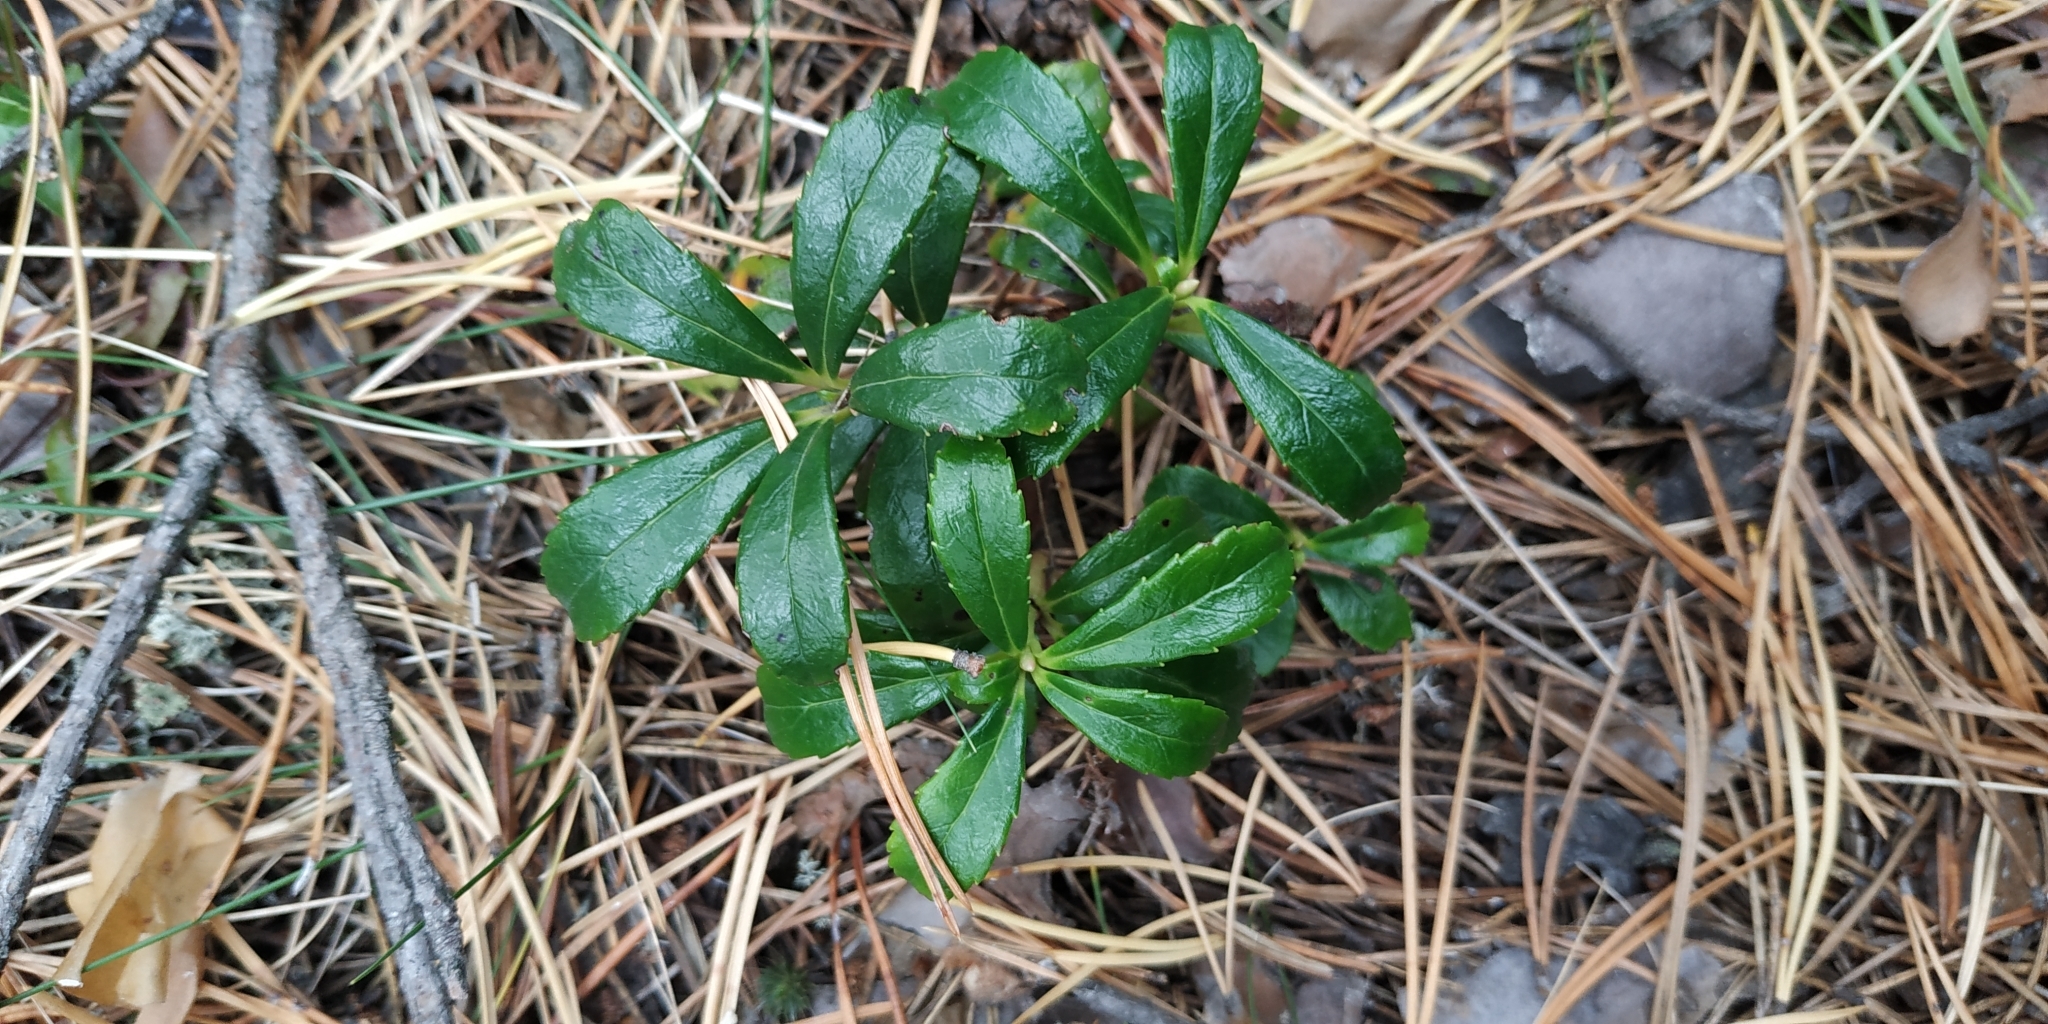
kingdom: Plantae
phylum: Tracheophyta
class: Magnoliopsida
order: Ericales
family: Ericaceae
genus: Chimaphila
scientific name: Chimaphila umbellata
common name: Pipsissewa
